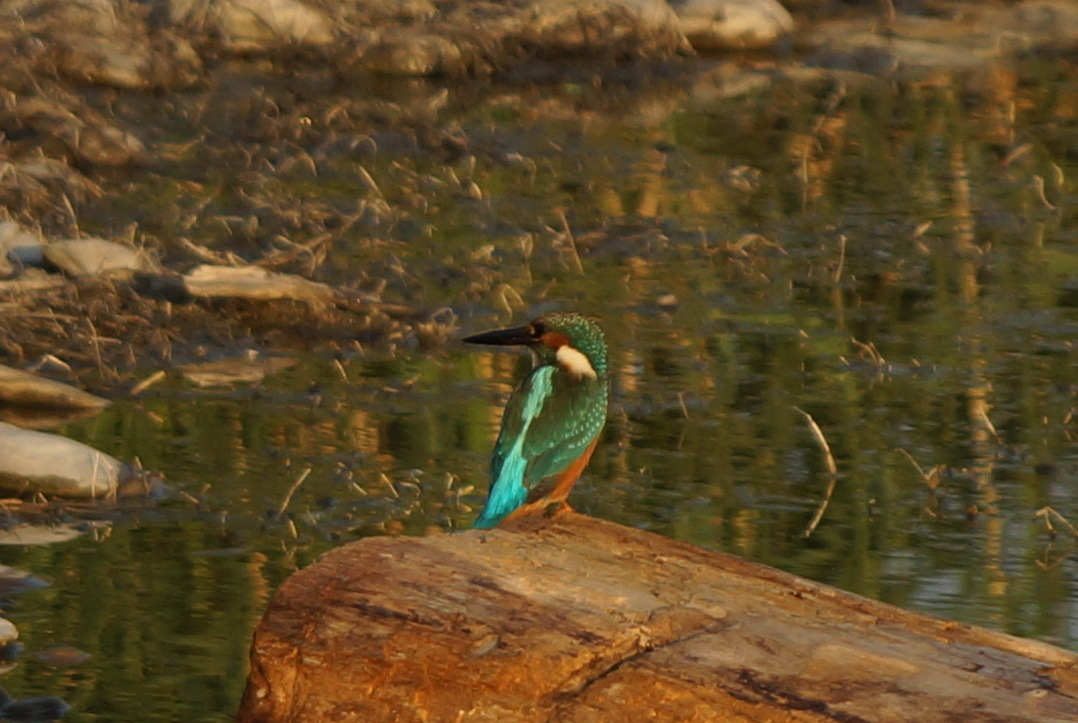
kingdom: Animalia
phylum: Chordata
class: Aves
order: Coraciiformes
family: Alcedinidae
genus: Alcedo
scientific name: Alcedo atthis
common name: Common kingfisher
